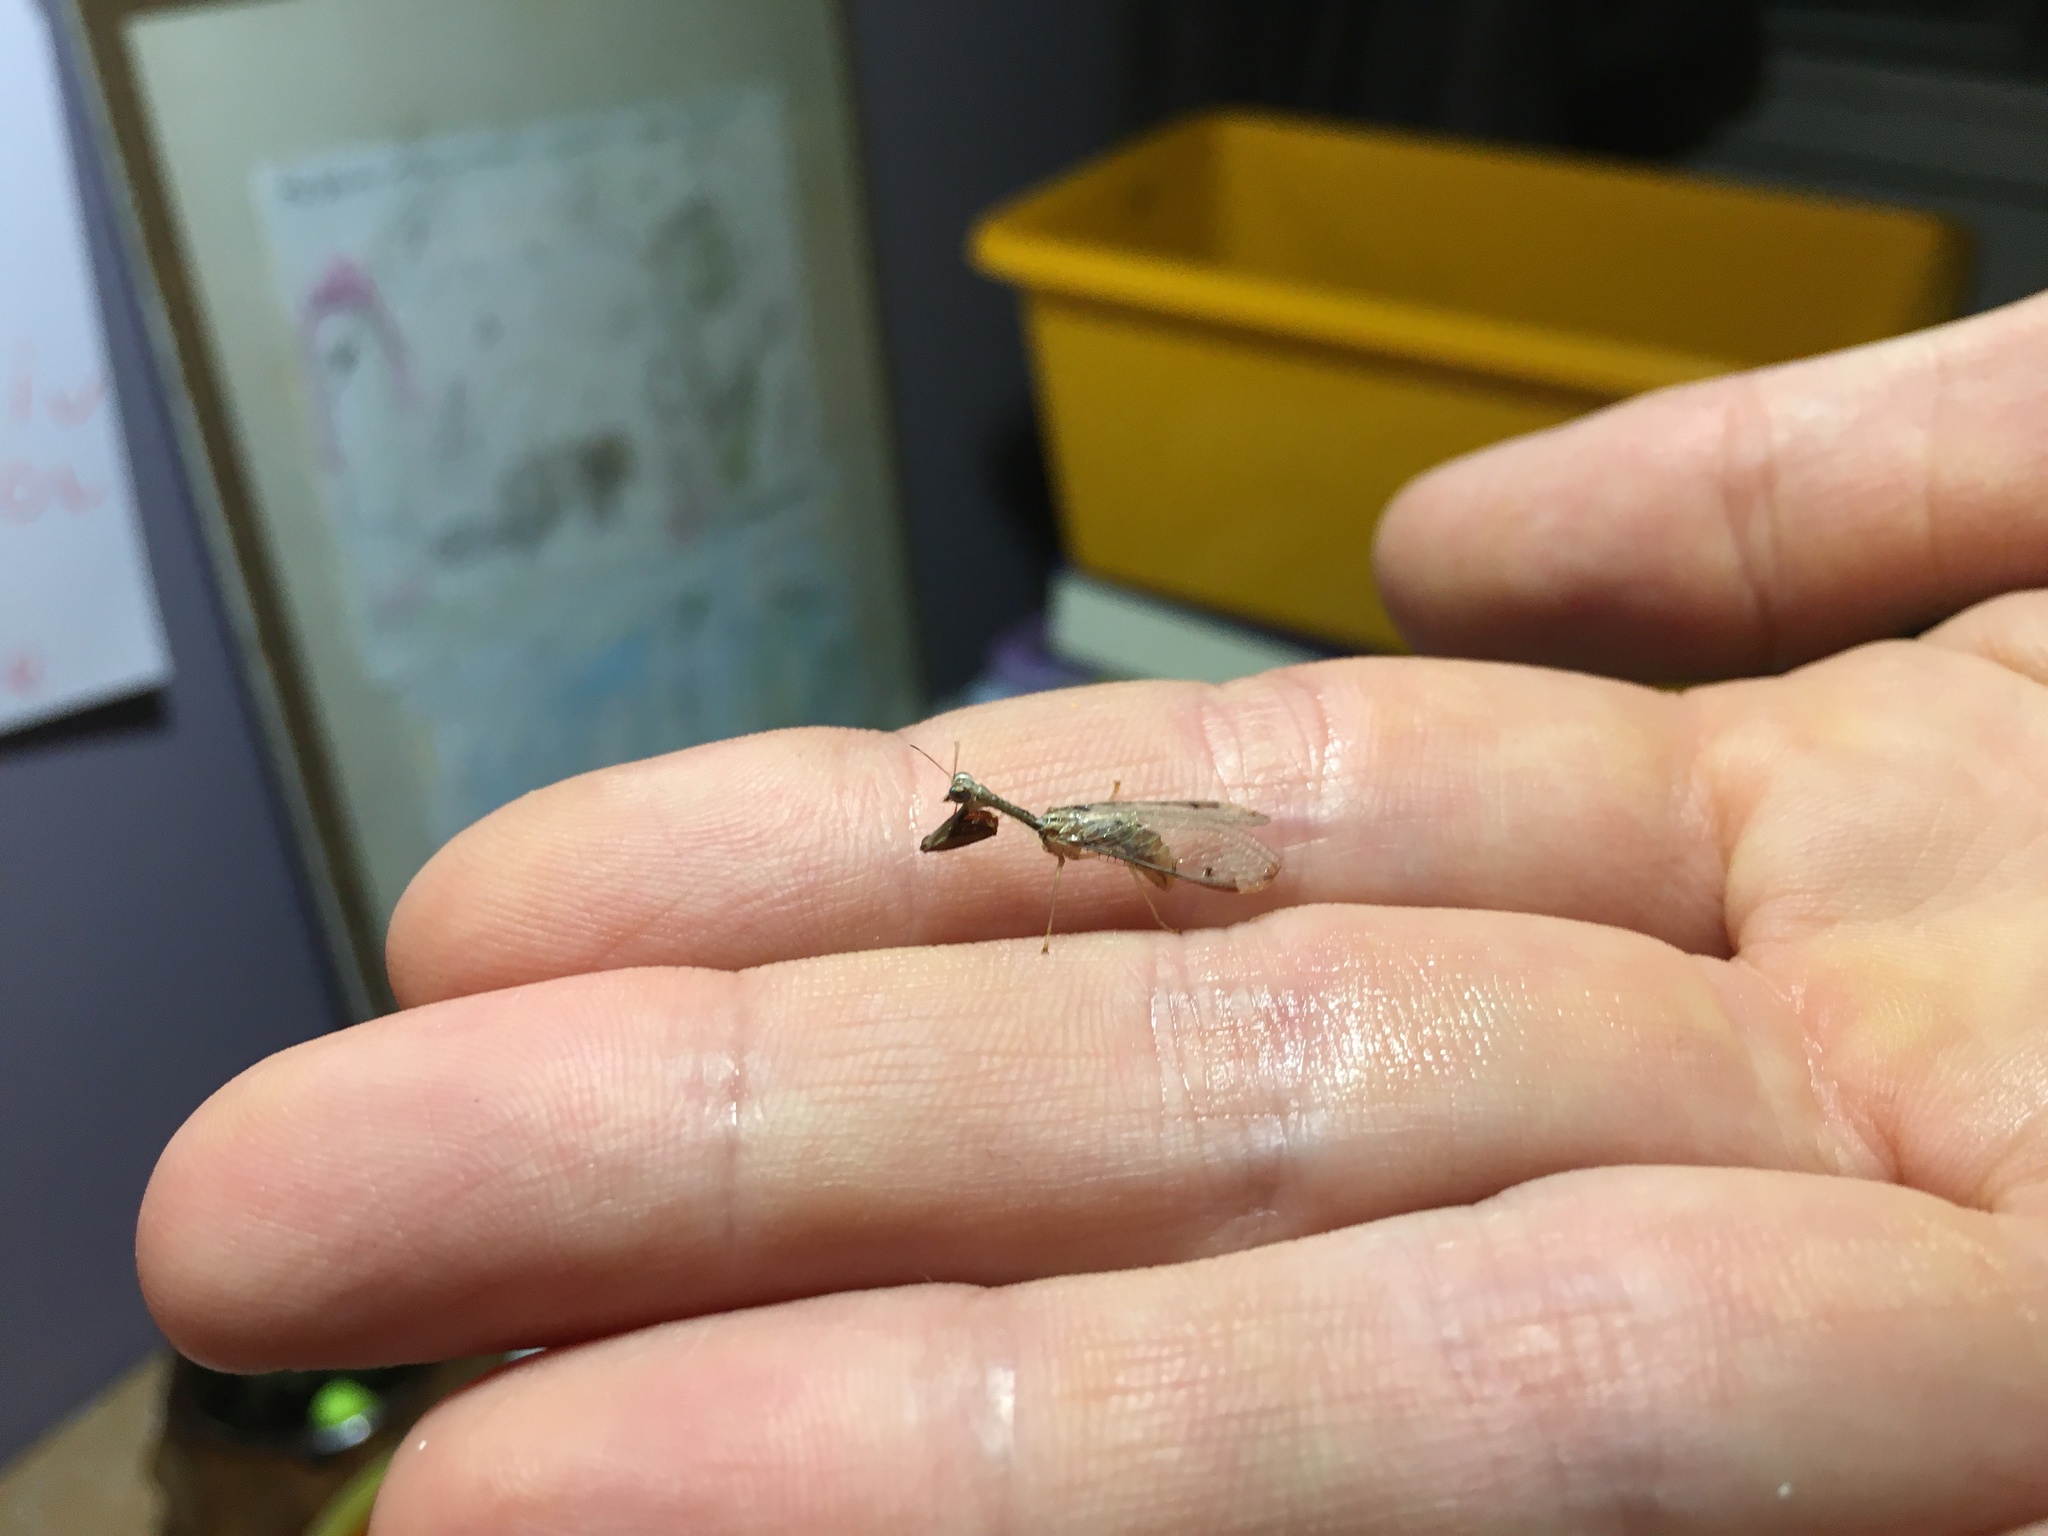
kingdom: Animalia
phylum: Arthropoda
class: Insecta
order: Neuroptera
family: Mantispidae
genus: Dicromantispa
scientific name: Dicromantispa interrupta
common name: Four-spotted mantidfly
